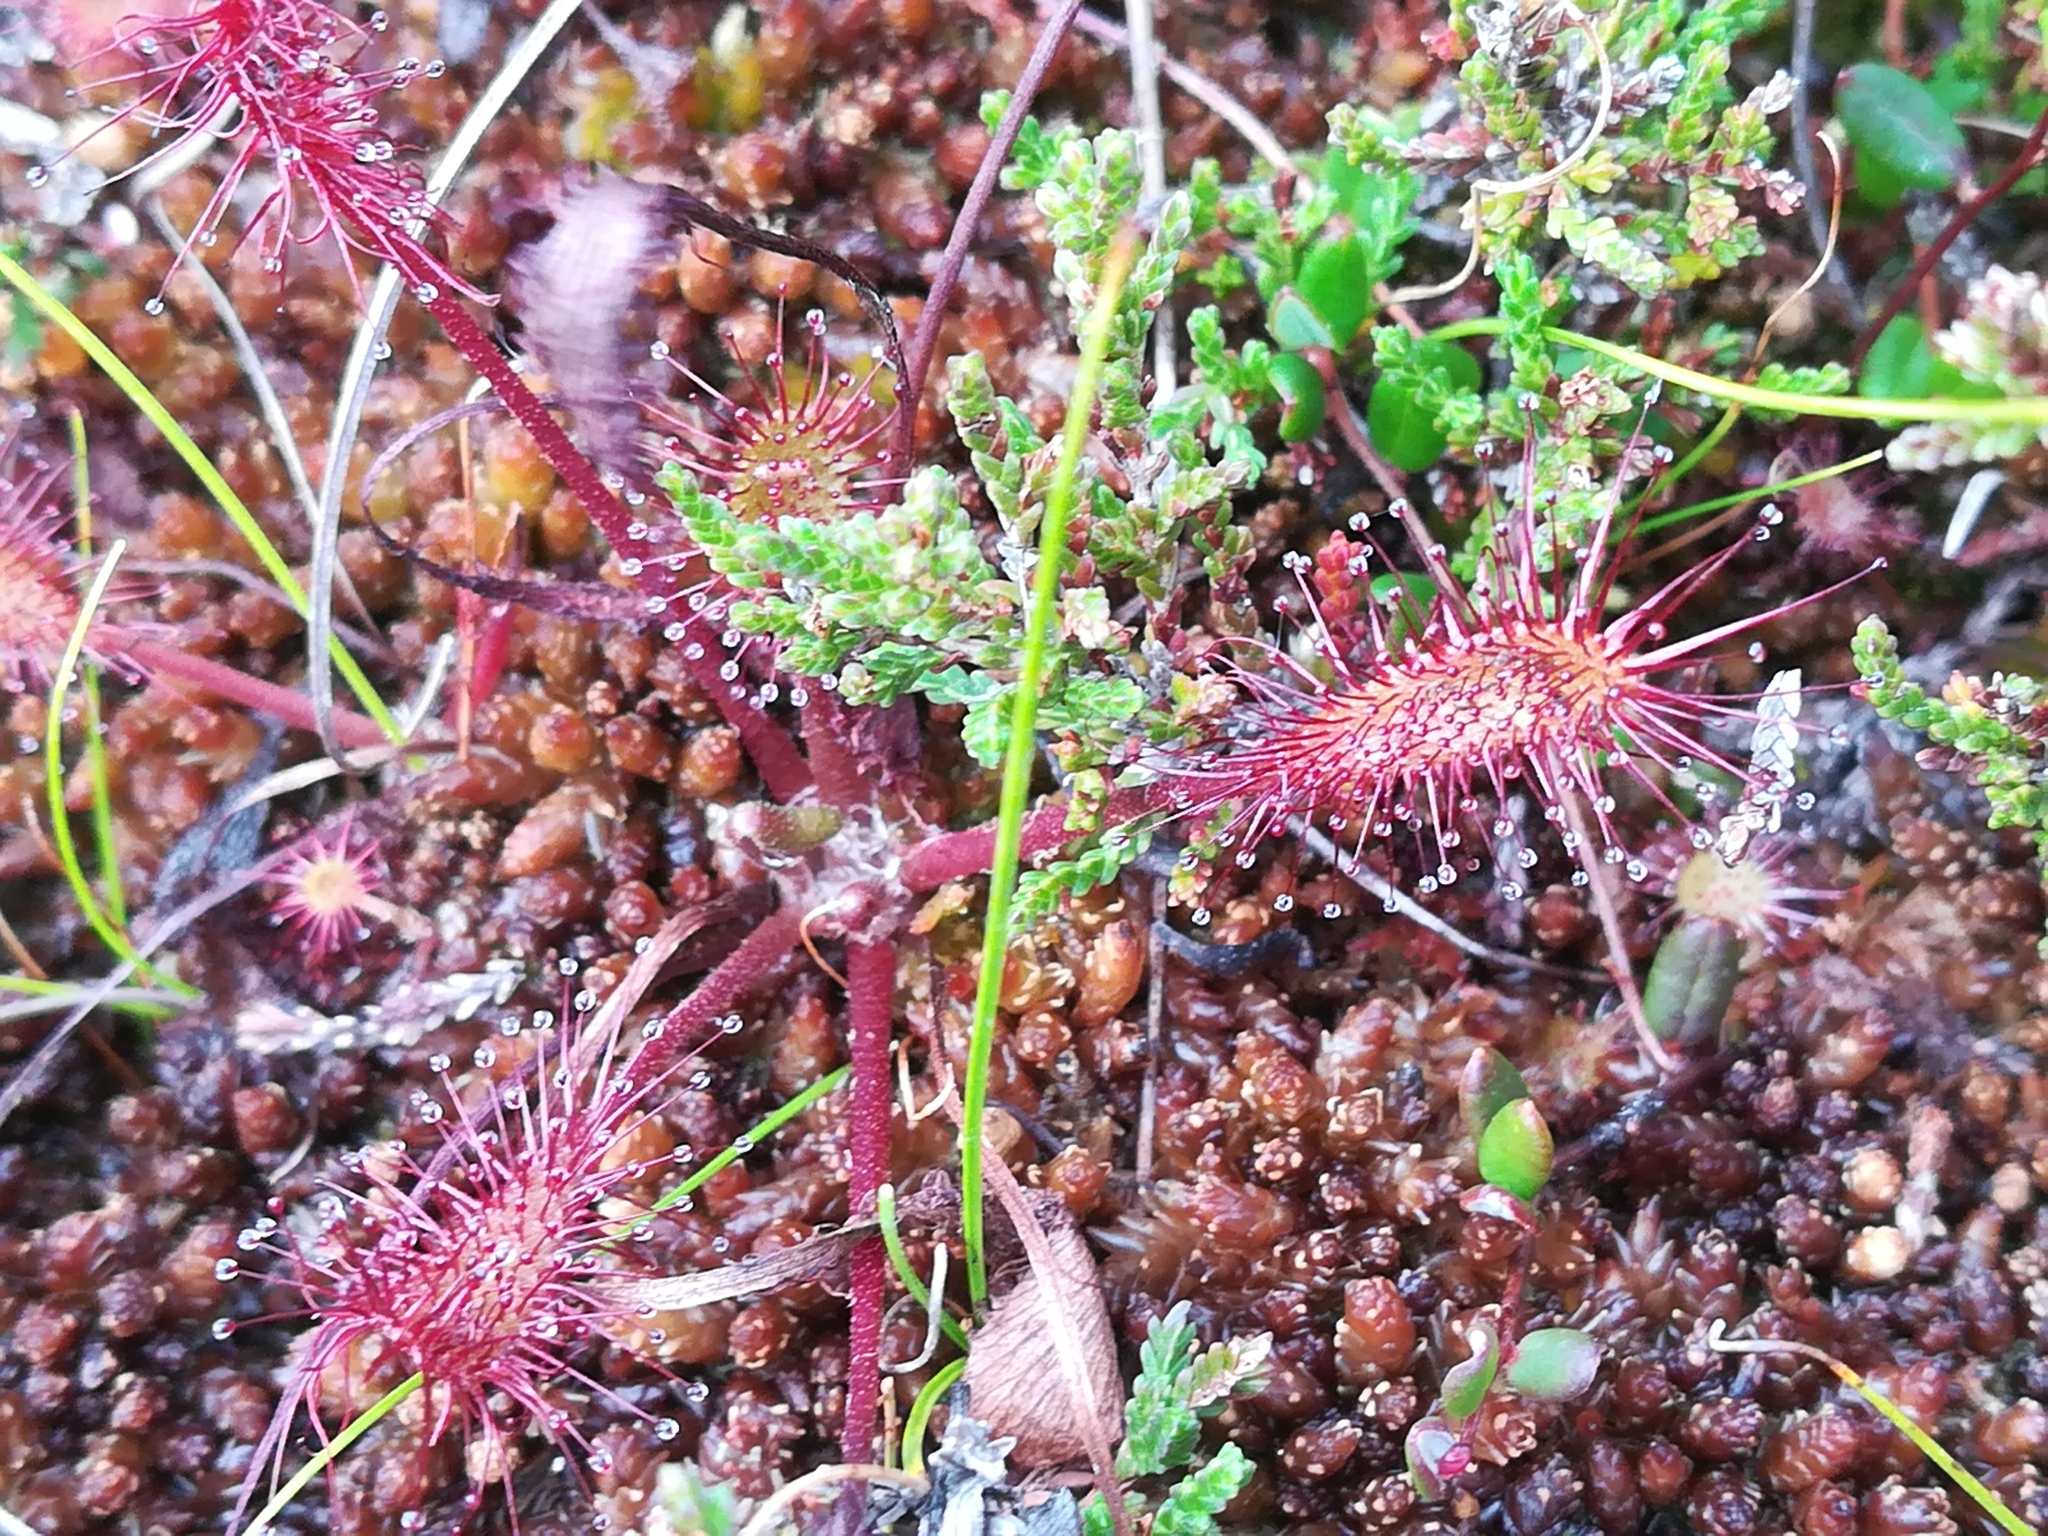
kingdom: Plantae
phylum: Tracheophyta
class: Magnoliopsida
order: Caryophyllales
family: Droseraceae
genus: Drosera
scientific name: Drosera anglica
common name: Great sundew
